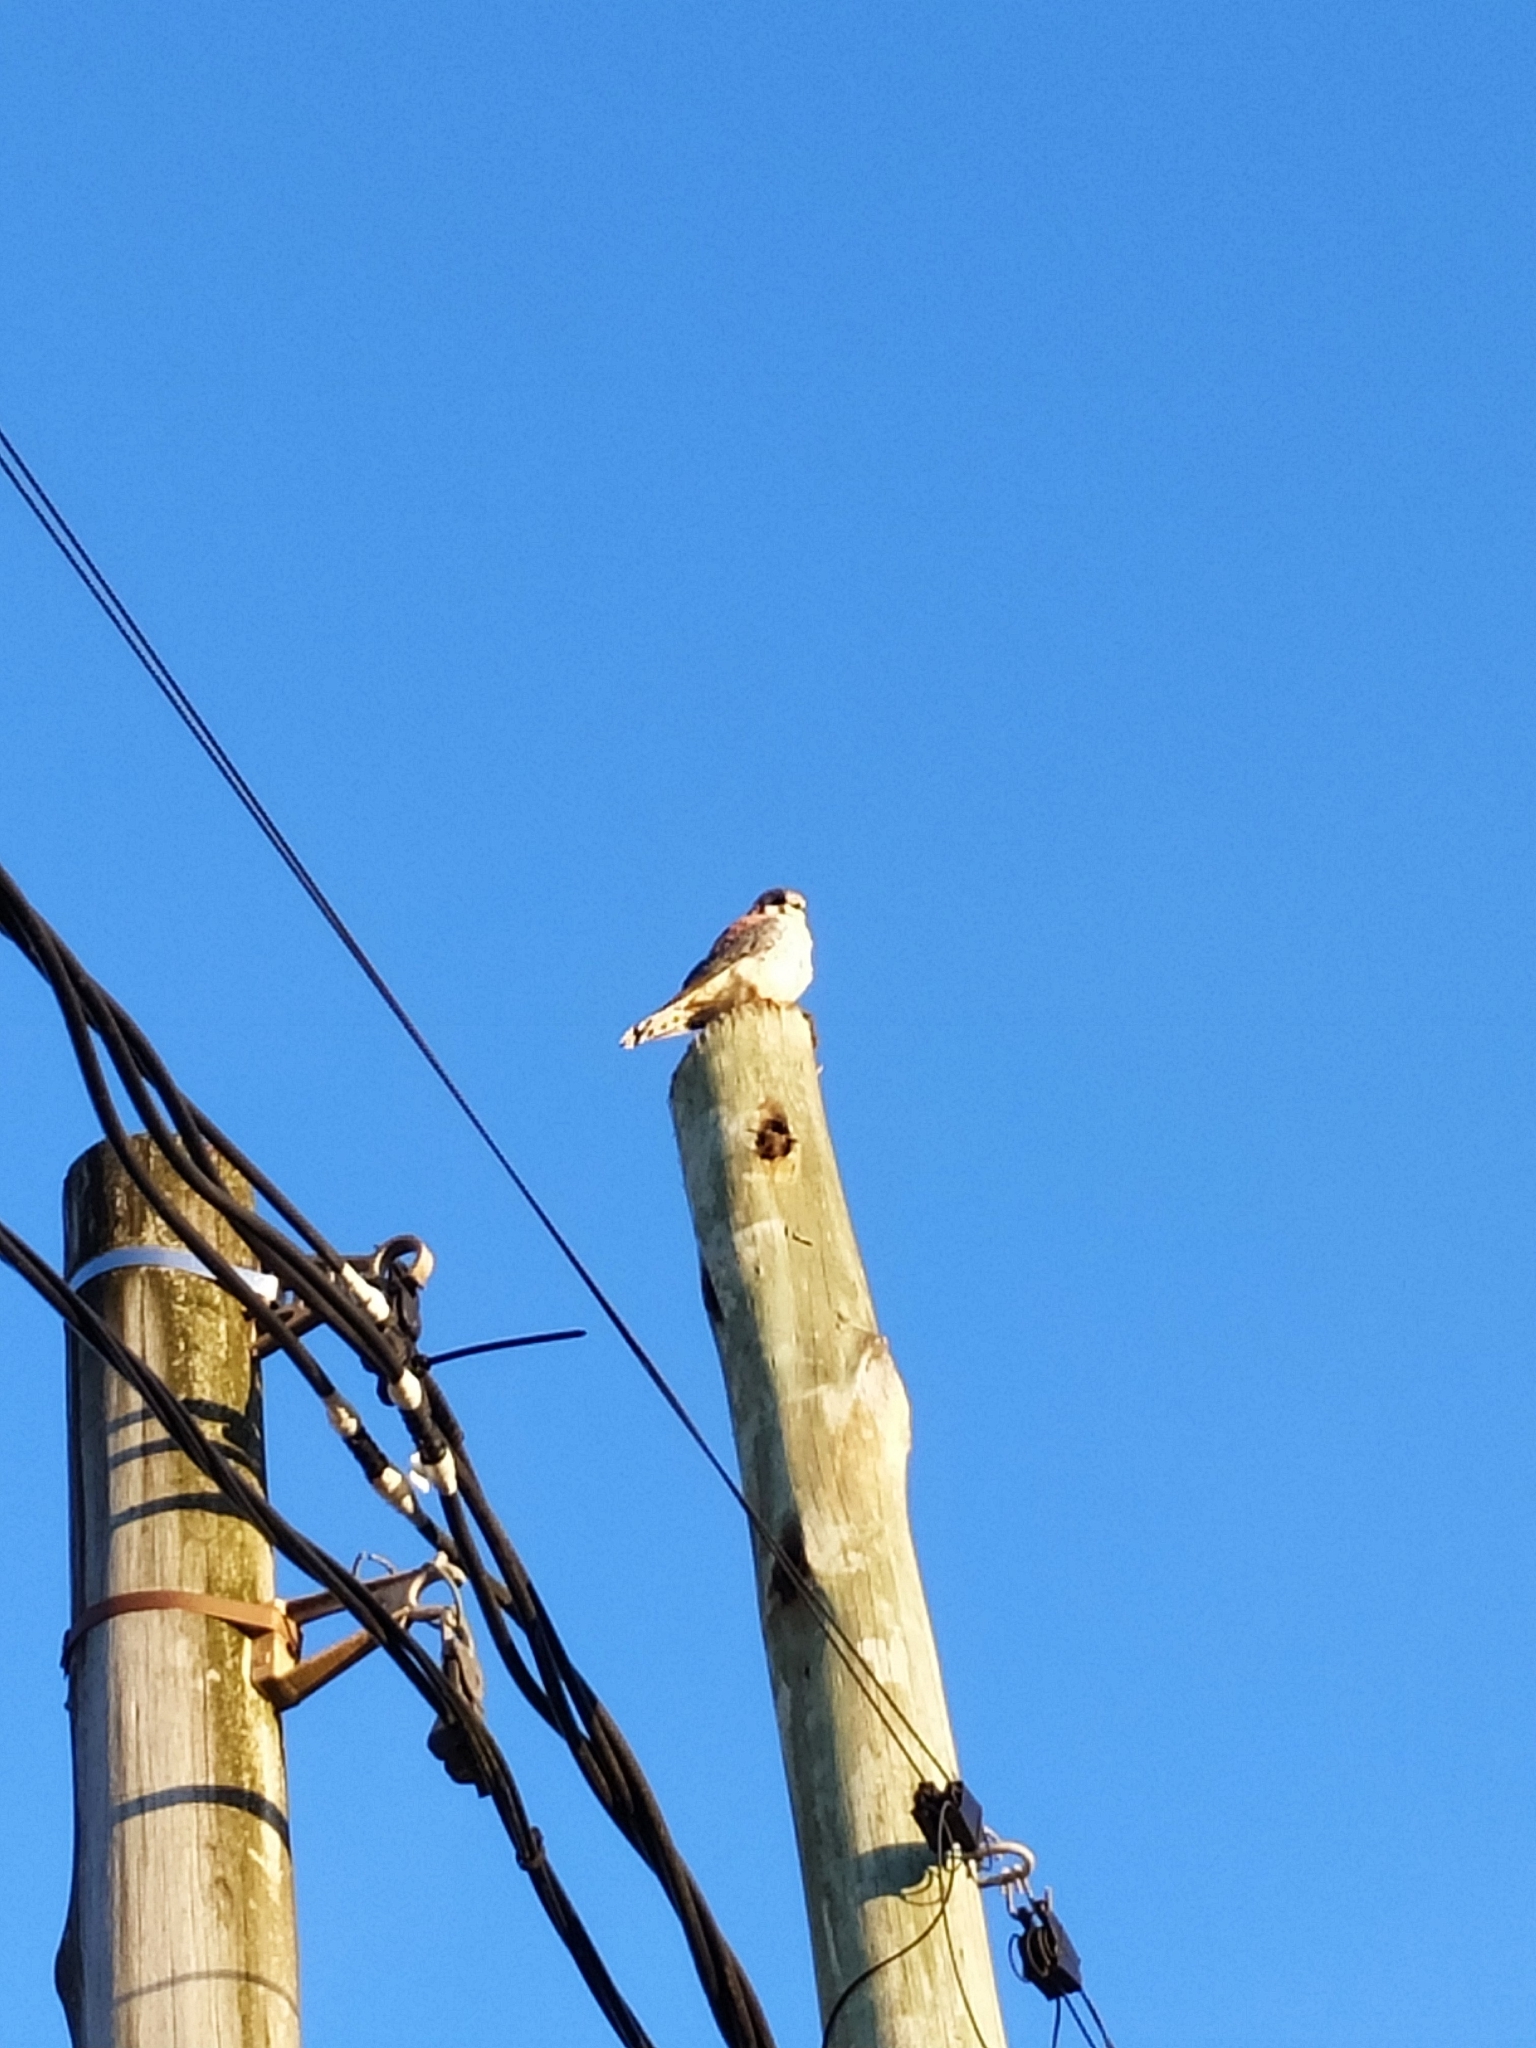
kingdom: Animalia
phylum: Chordata
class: Aves
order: Falconiformes
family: Falconidae
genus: Falco
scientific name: Falco sparverius
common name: American kestrel
